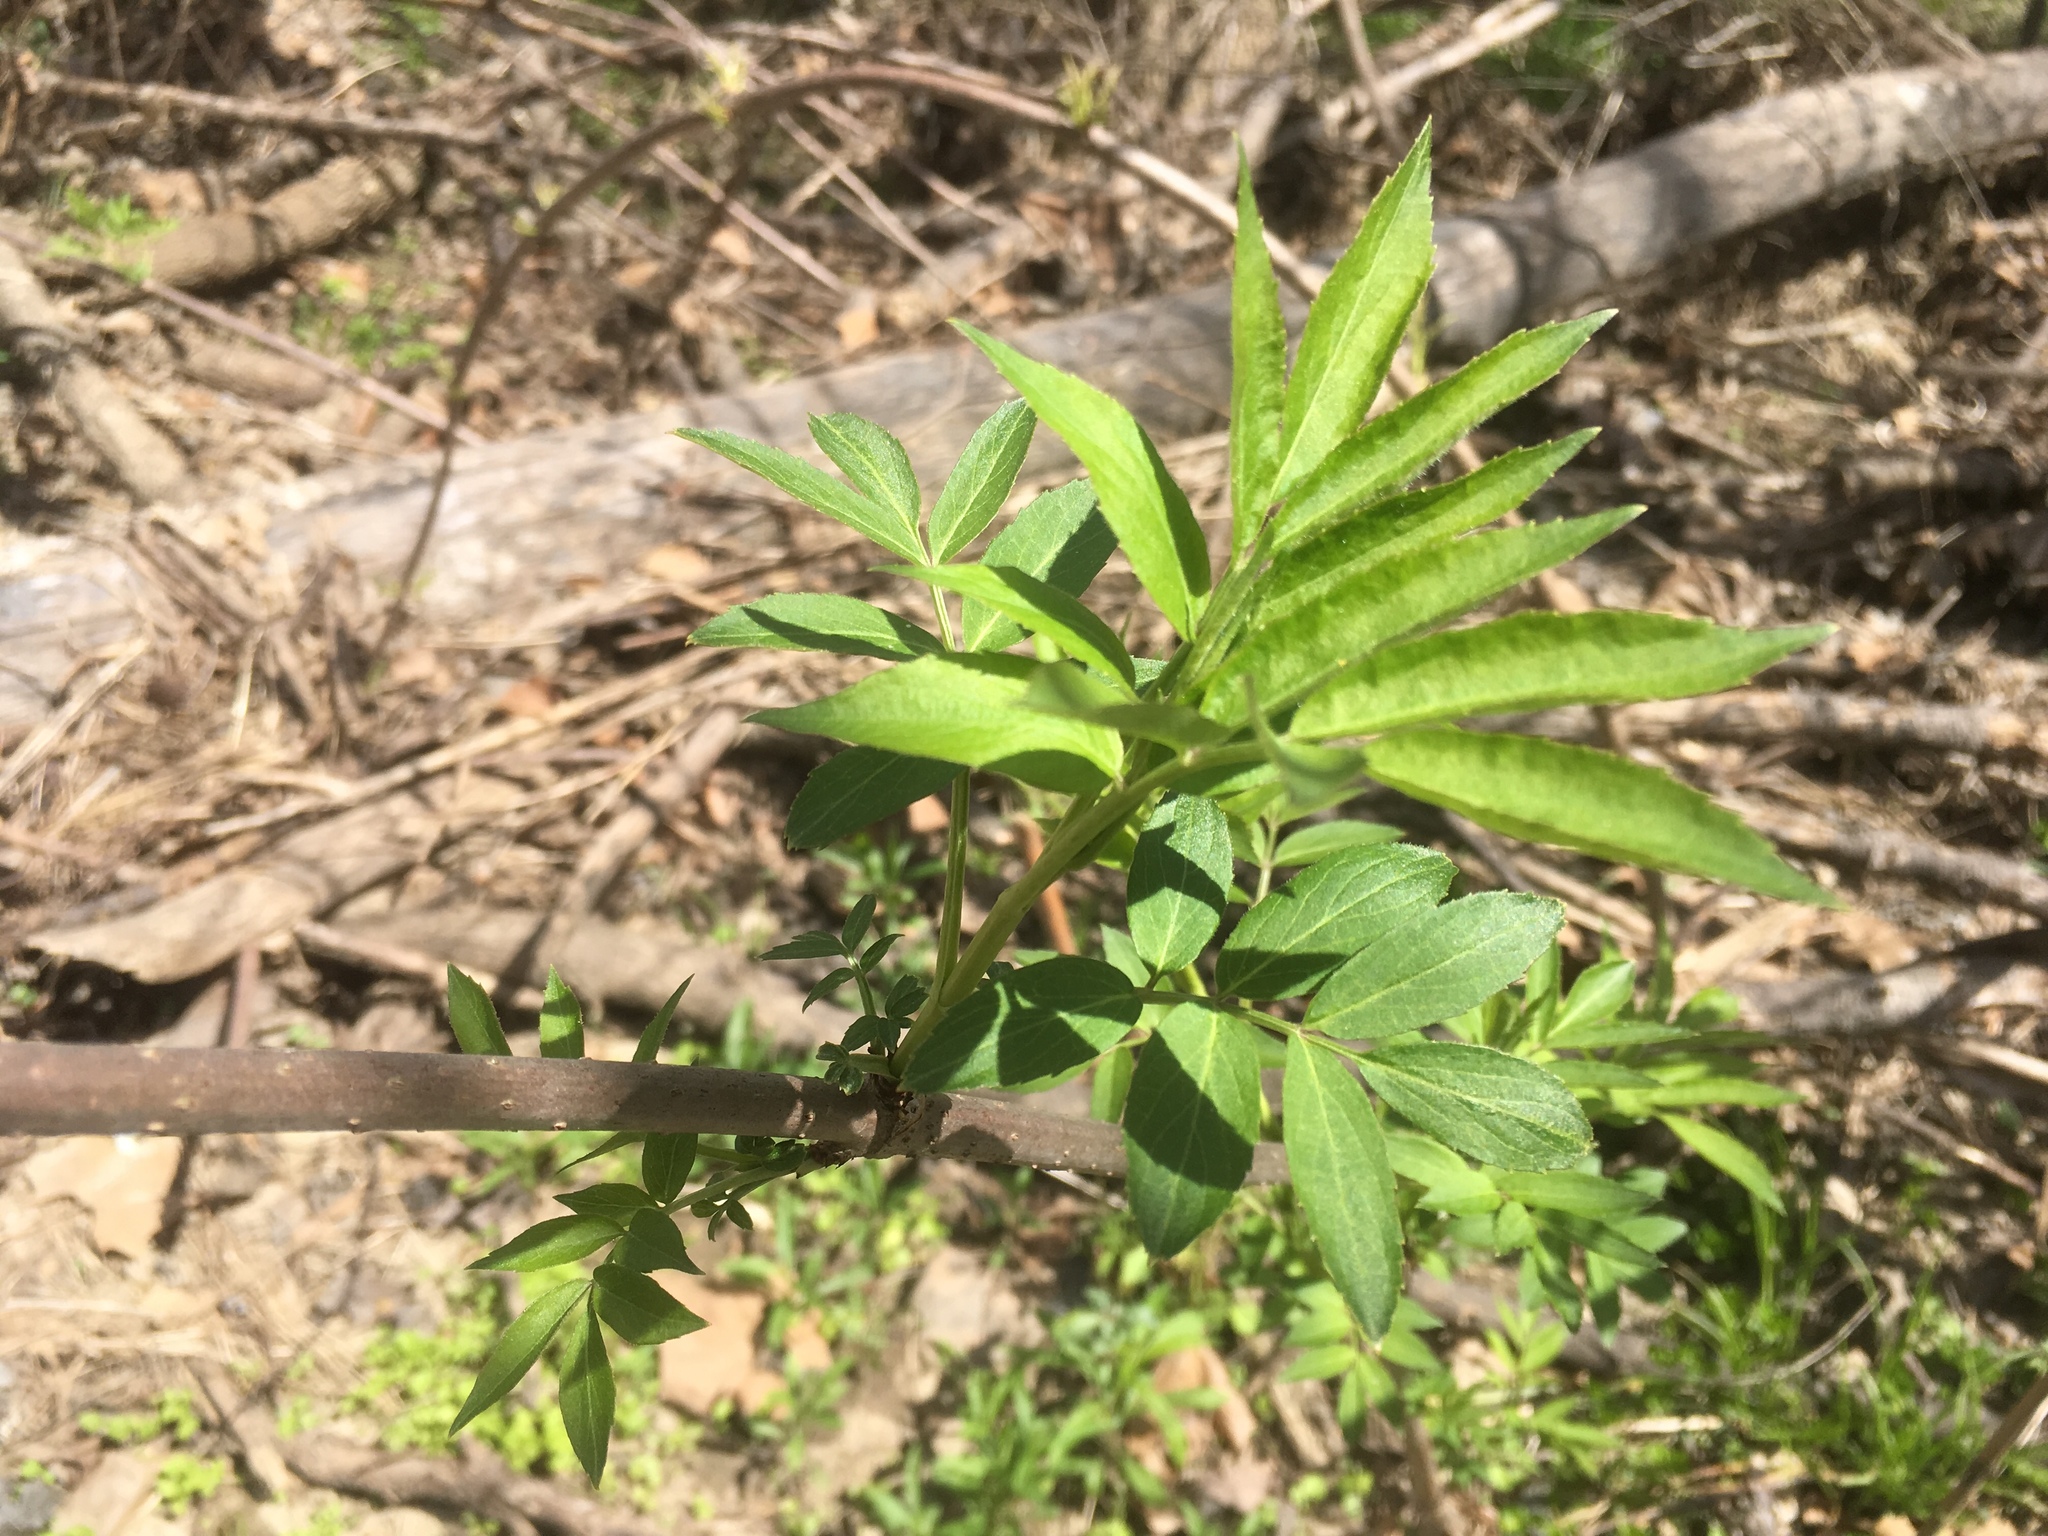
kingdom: Plantae
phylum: Tracheophyta
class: Magnoliopsida
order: Dipsacales
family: Viburnaceae
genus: Sambucus
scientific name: Sambucus
